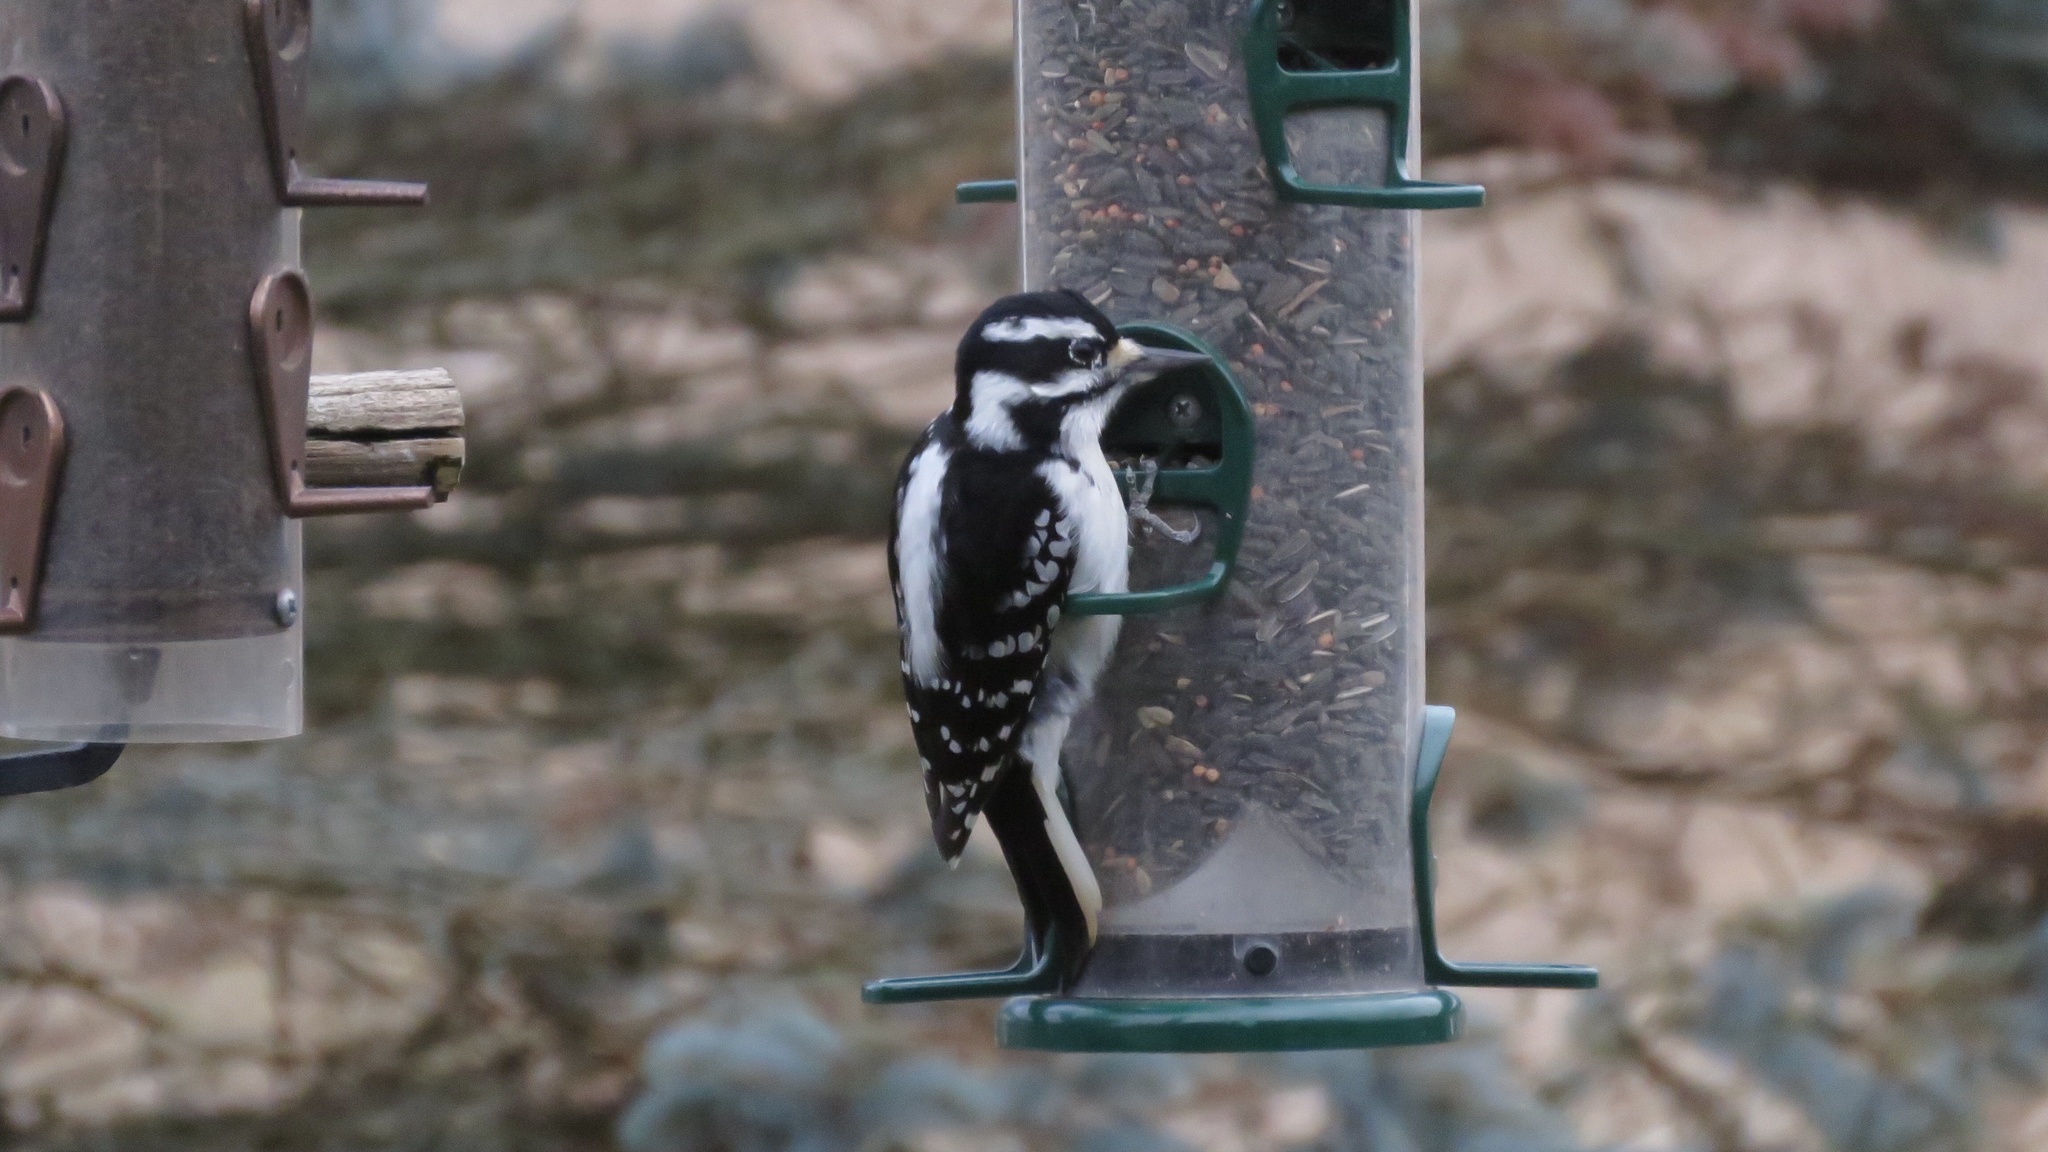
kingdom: Animalia
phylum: Chordata
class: Aves
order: Piciformes
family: Picidae
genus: Leuconotopicus
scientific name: Leuconotopicus villosus
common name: Hairy woodpecker
